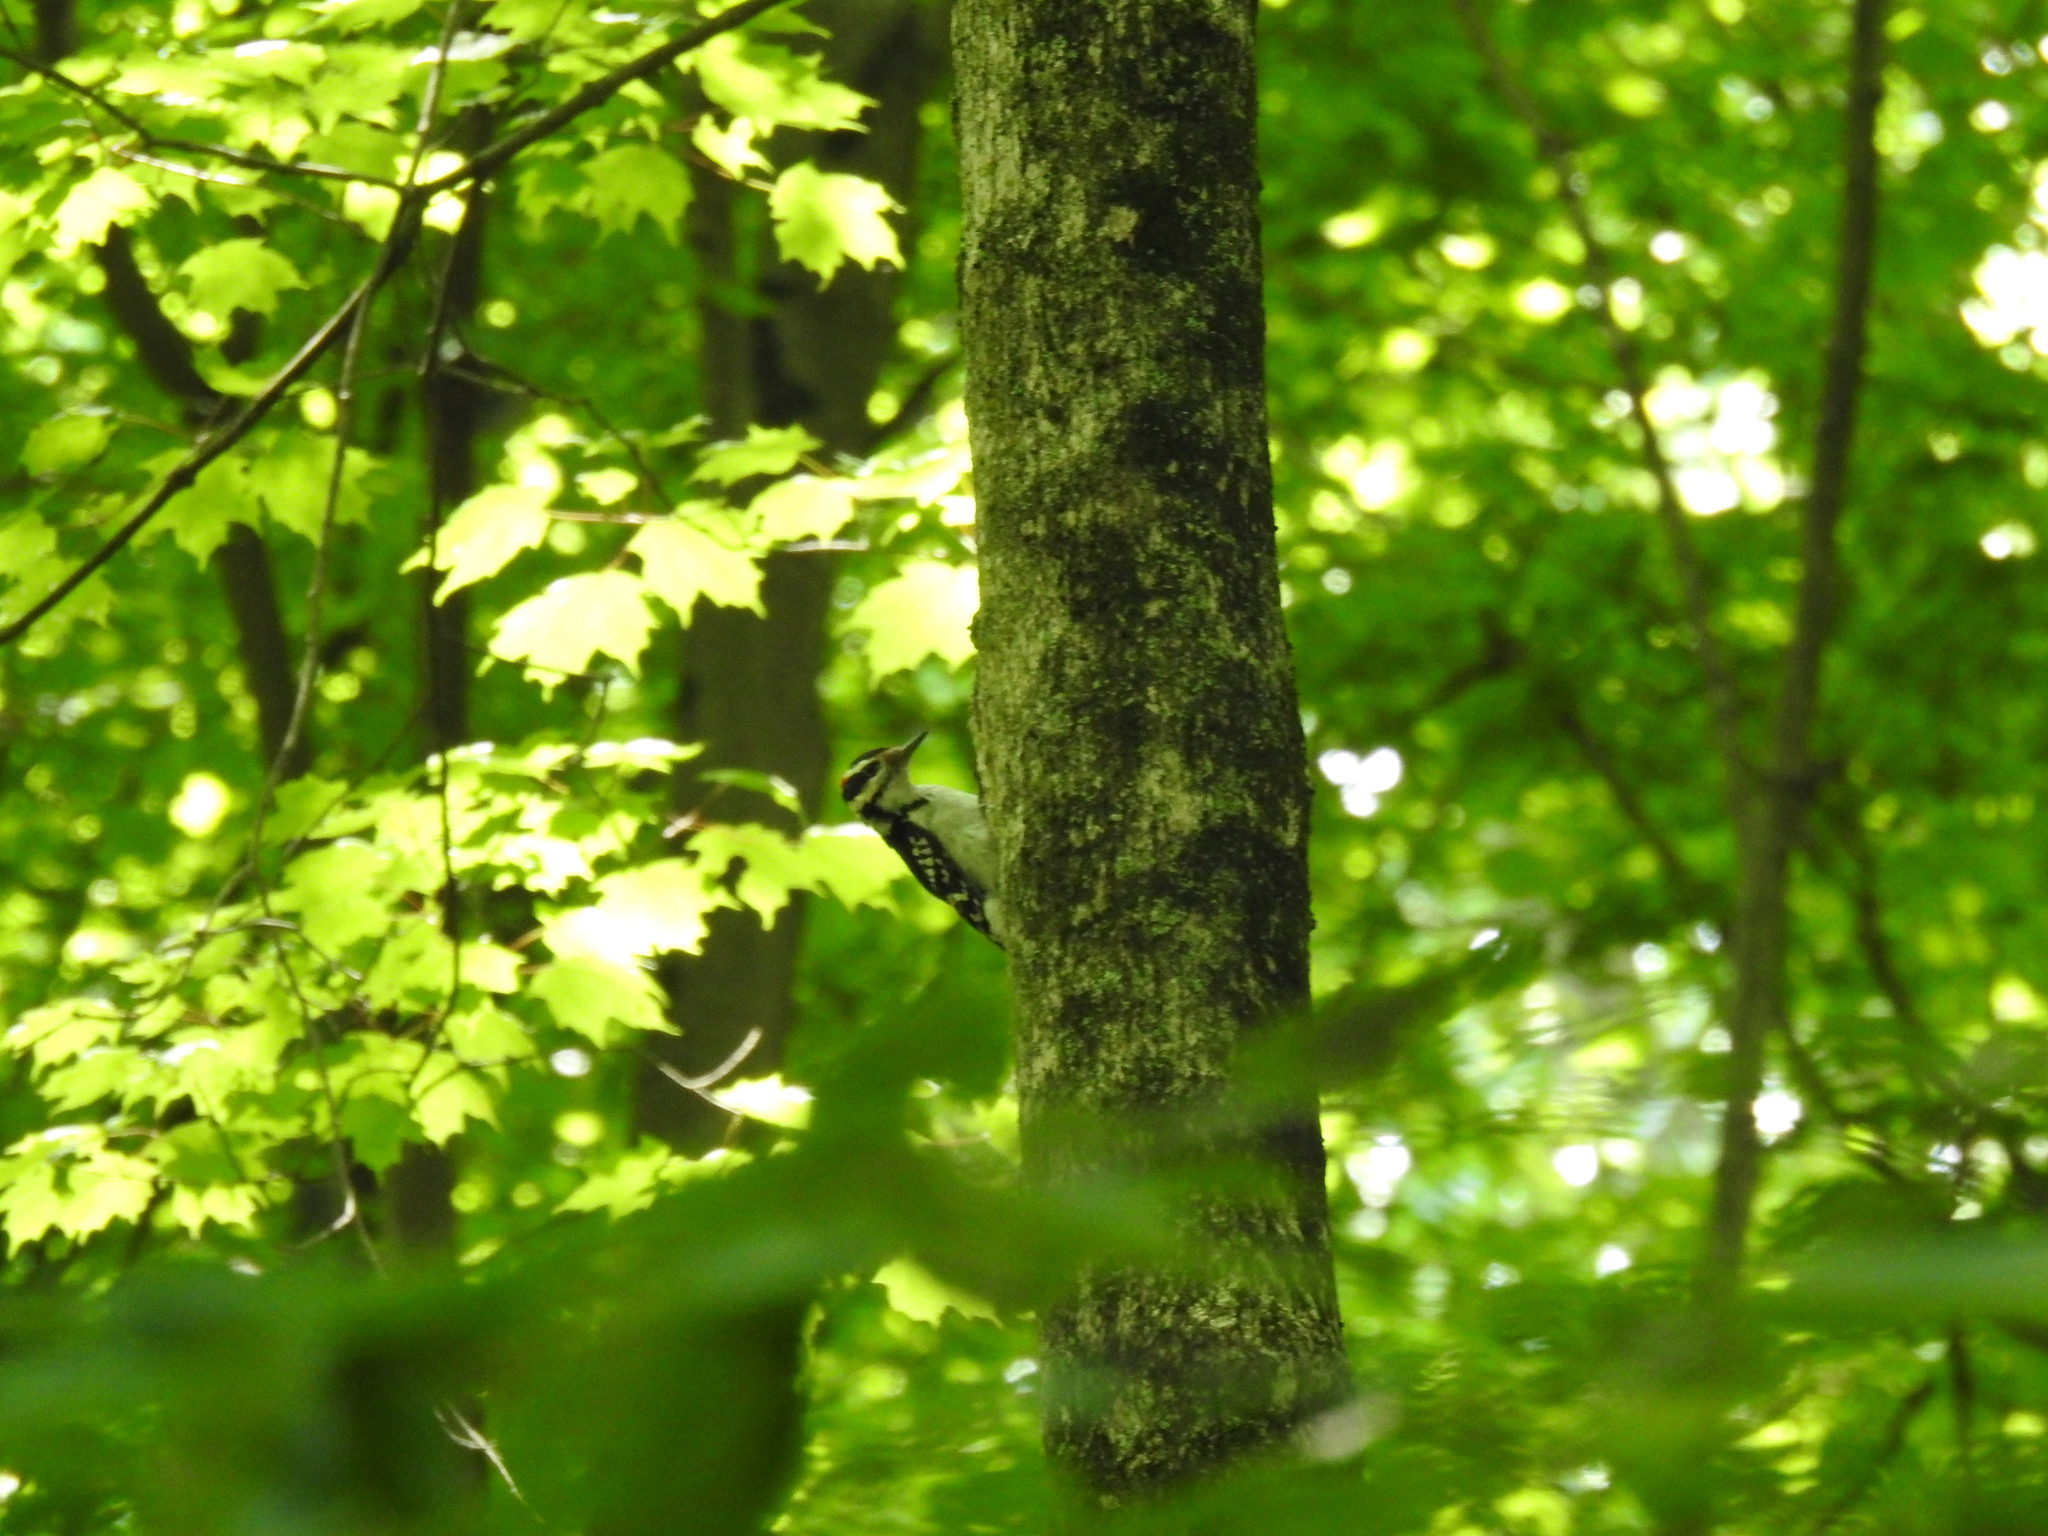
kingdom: Animalia
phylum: Chordata
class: Aves
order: Piciformes
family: Picidae
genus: Leuconotopicus
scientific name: Leuconotopicus villosus
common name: Hairy woodpecker
